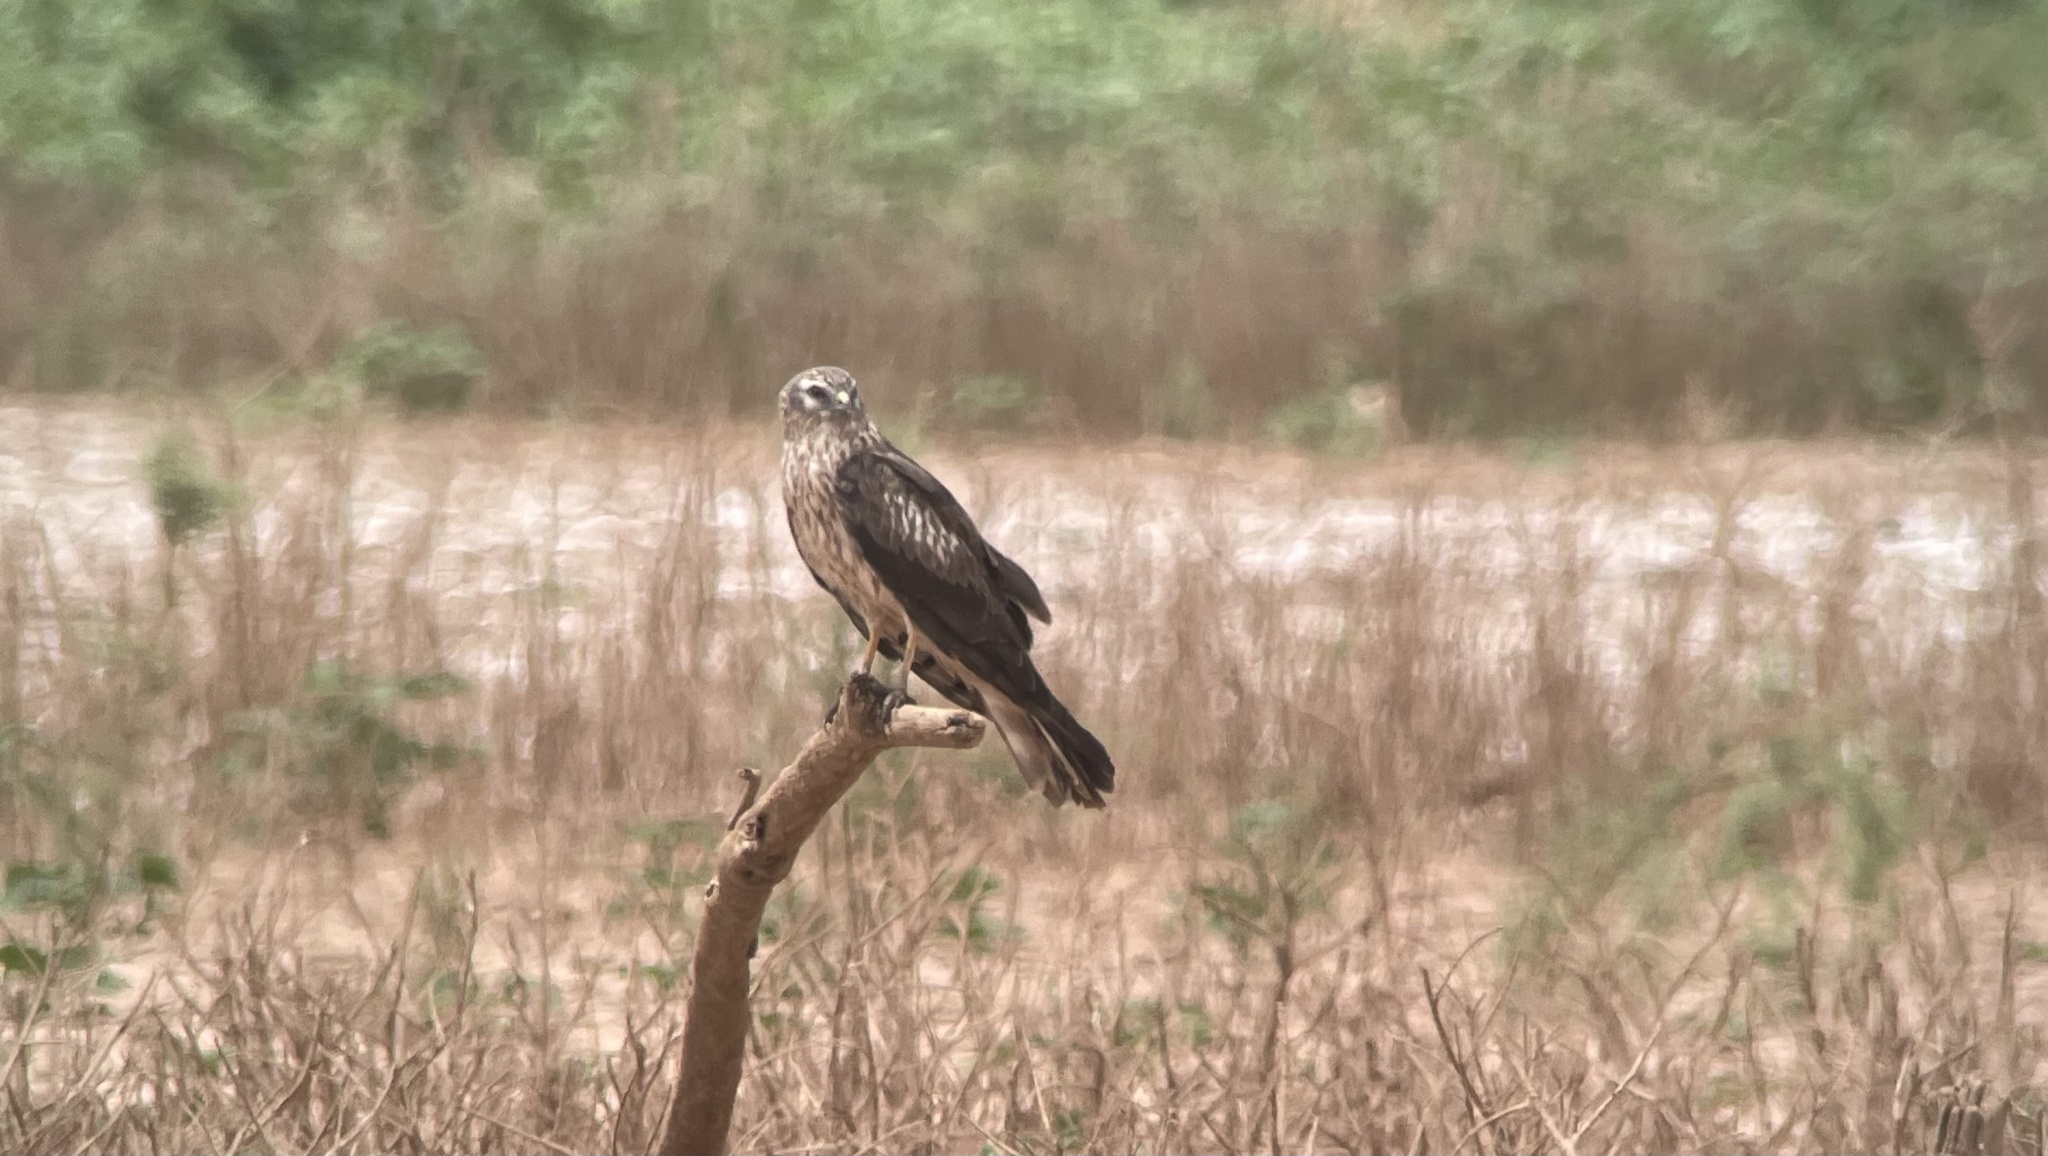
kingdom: Animalia
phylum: Chordata
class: Aves
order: Accipitriformes
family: Accipitridae
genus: Circus
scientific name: Circus pygargus
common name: Montagu's harrier
